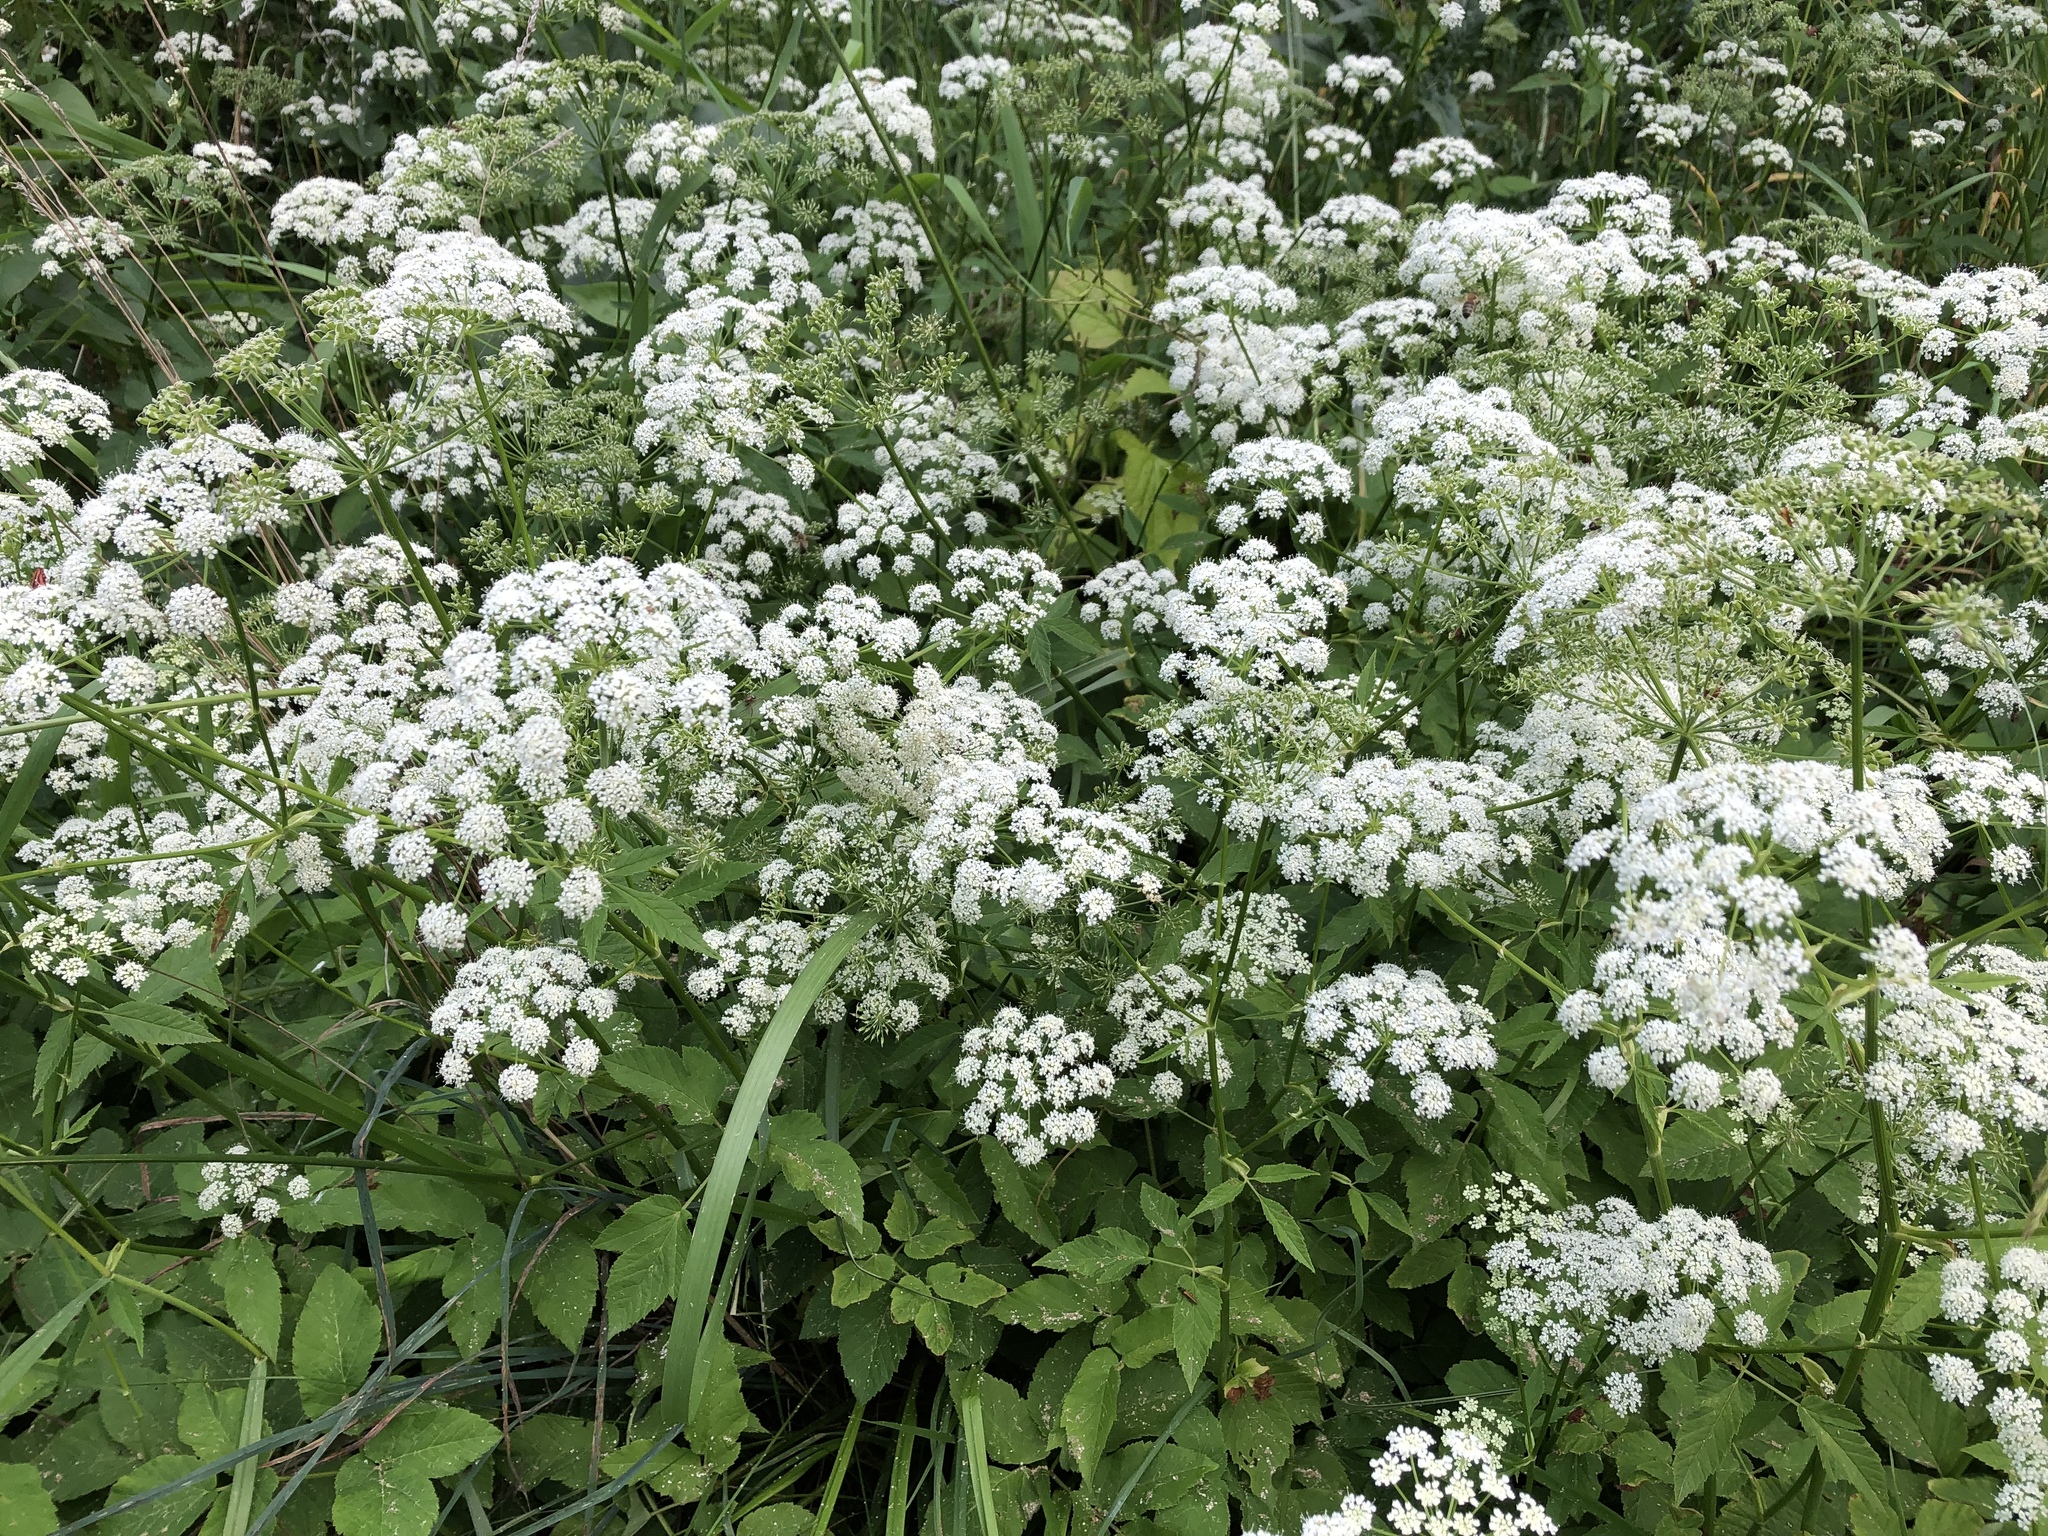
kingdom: Plantae
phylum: Tracheophyta
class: Magnoliopsida
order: Apiales
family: Apiaceae
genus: Aegopodium
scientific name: Aegopodium podagraria
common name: Ground-elder
